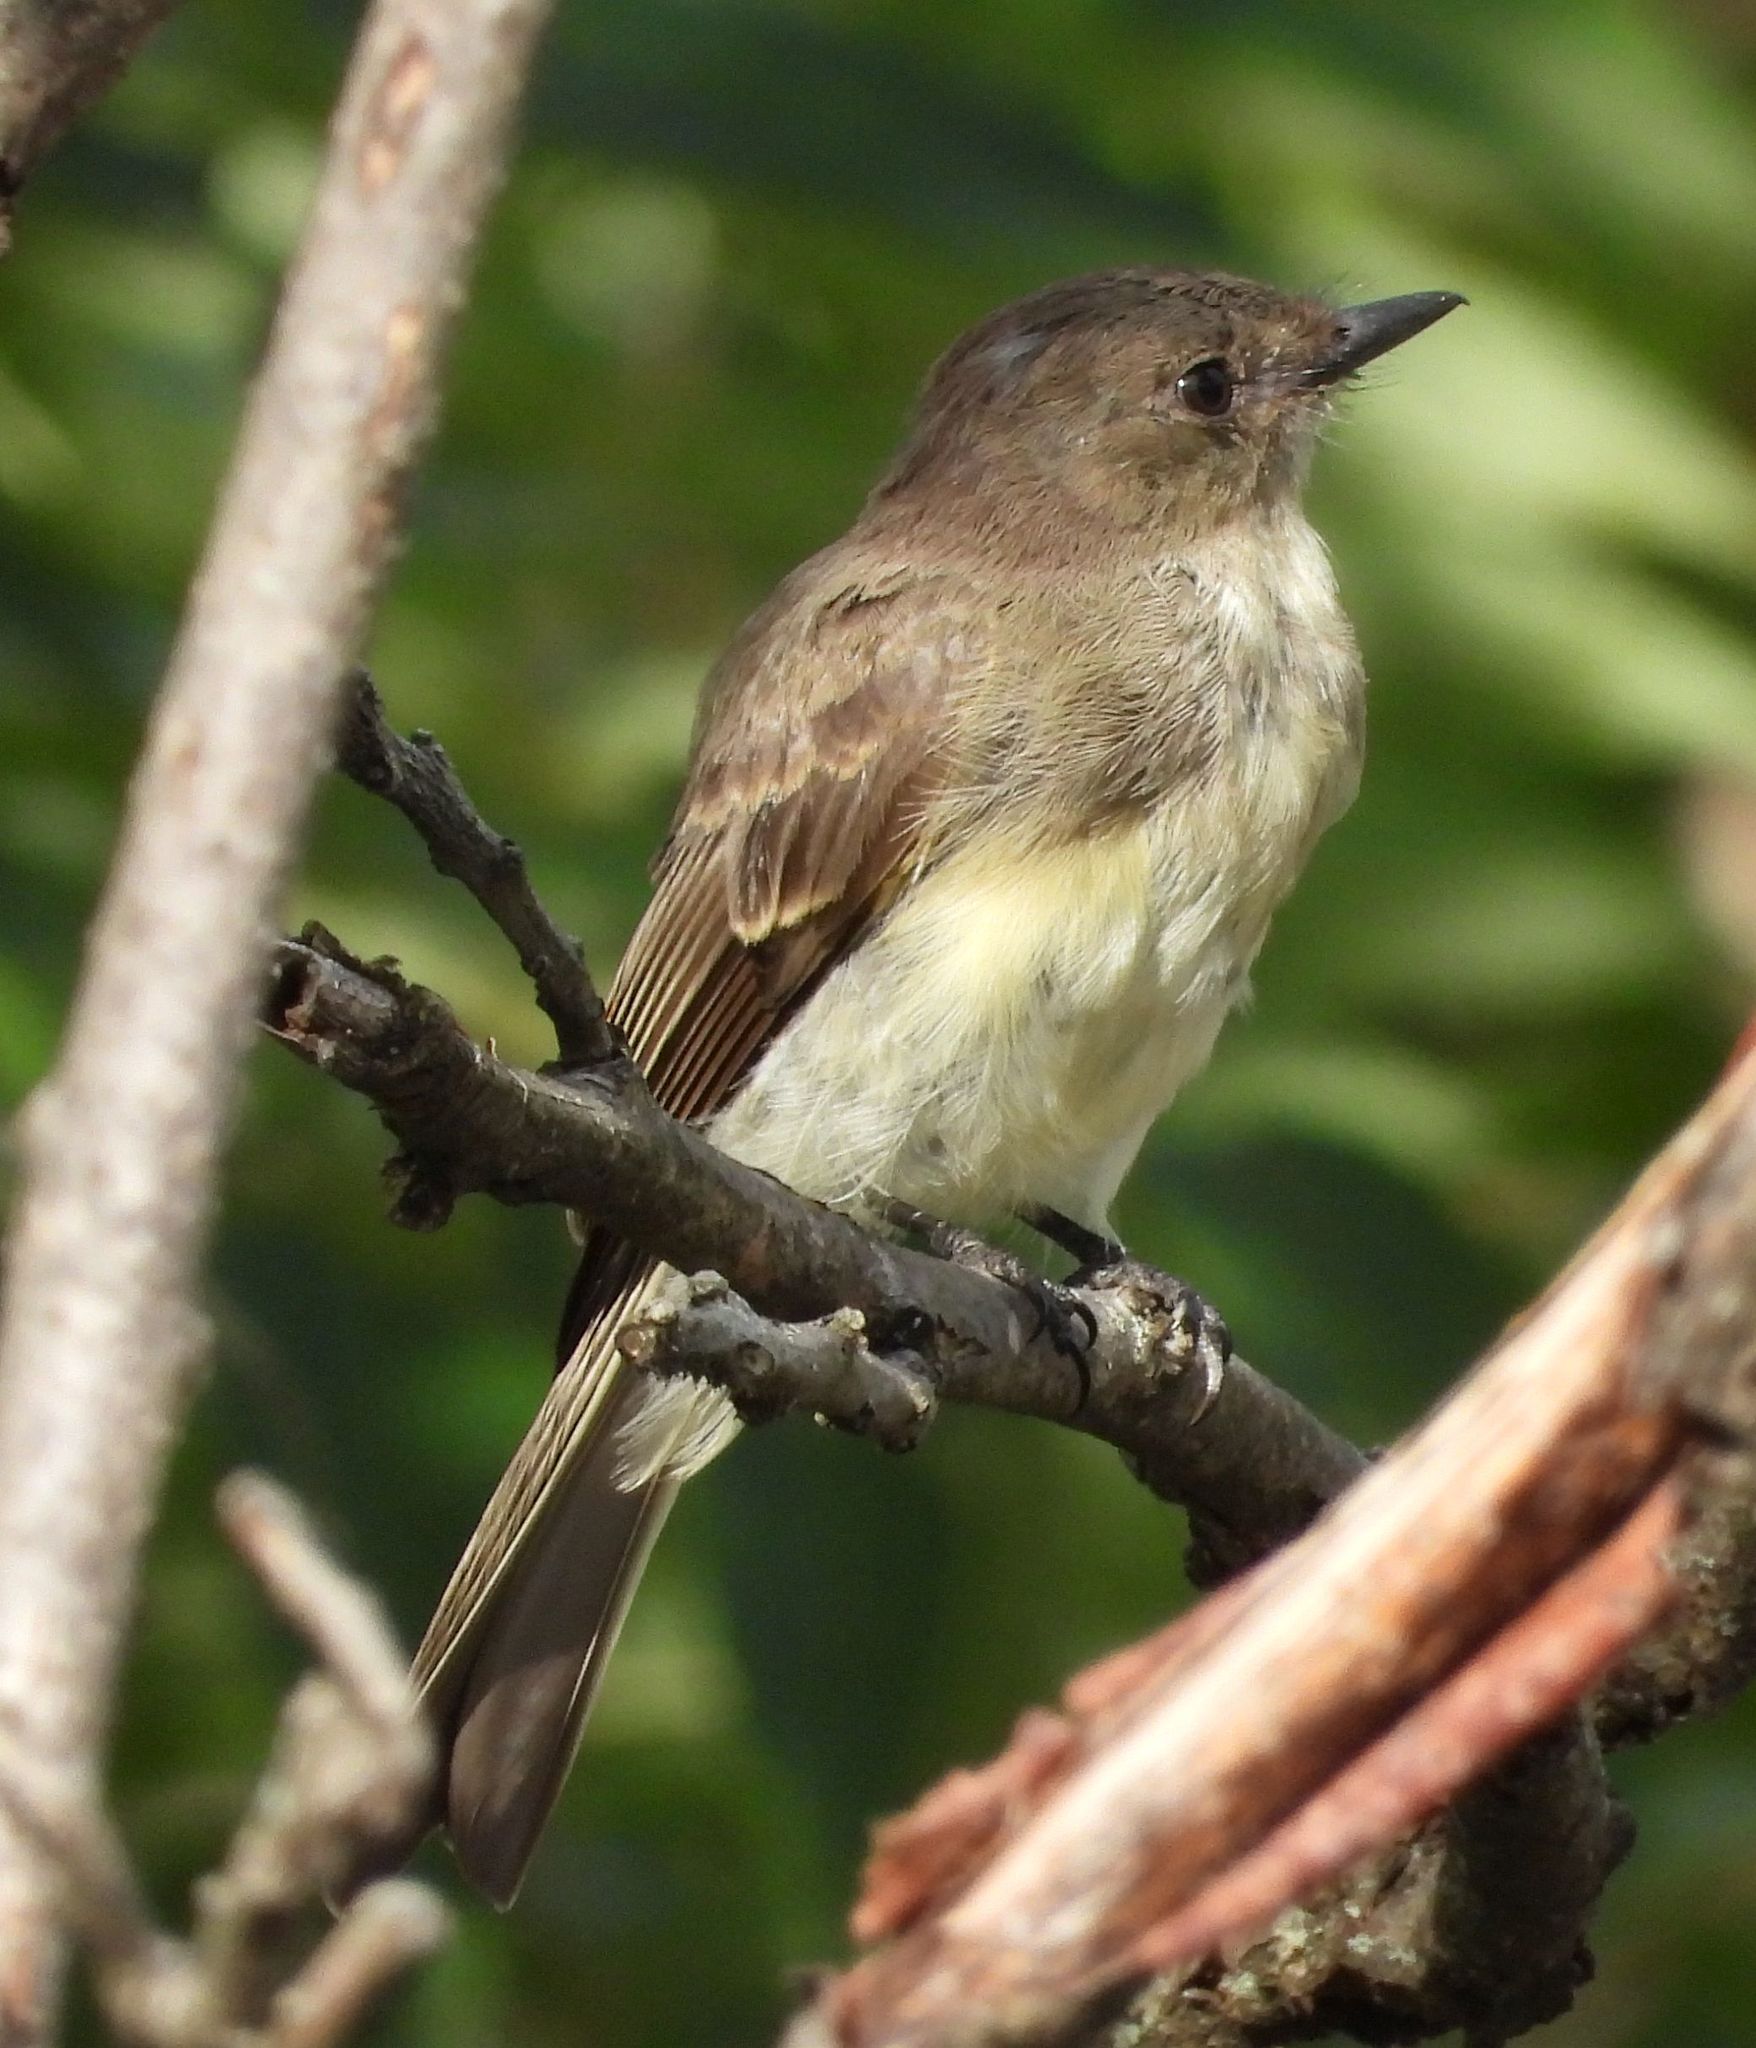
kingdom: Animalia
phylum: Chordata
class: Aves
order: Passeriformes
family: Tyrannidae
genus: Sayornis
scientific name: Sayornis phoebe
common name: Eastern phoebe
